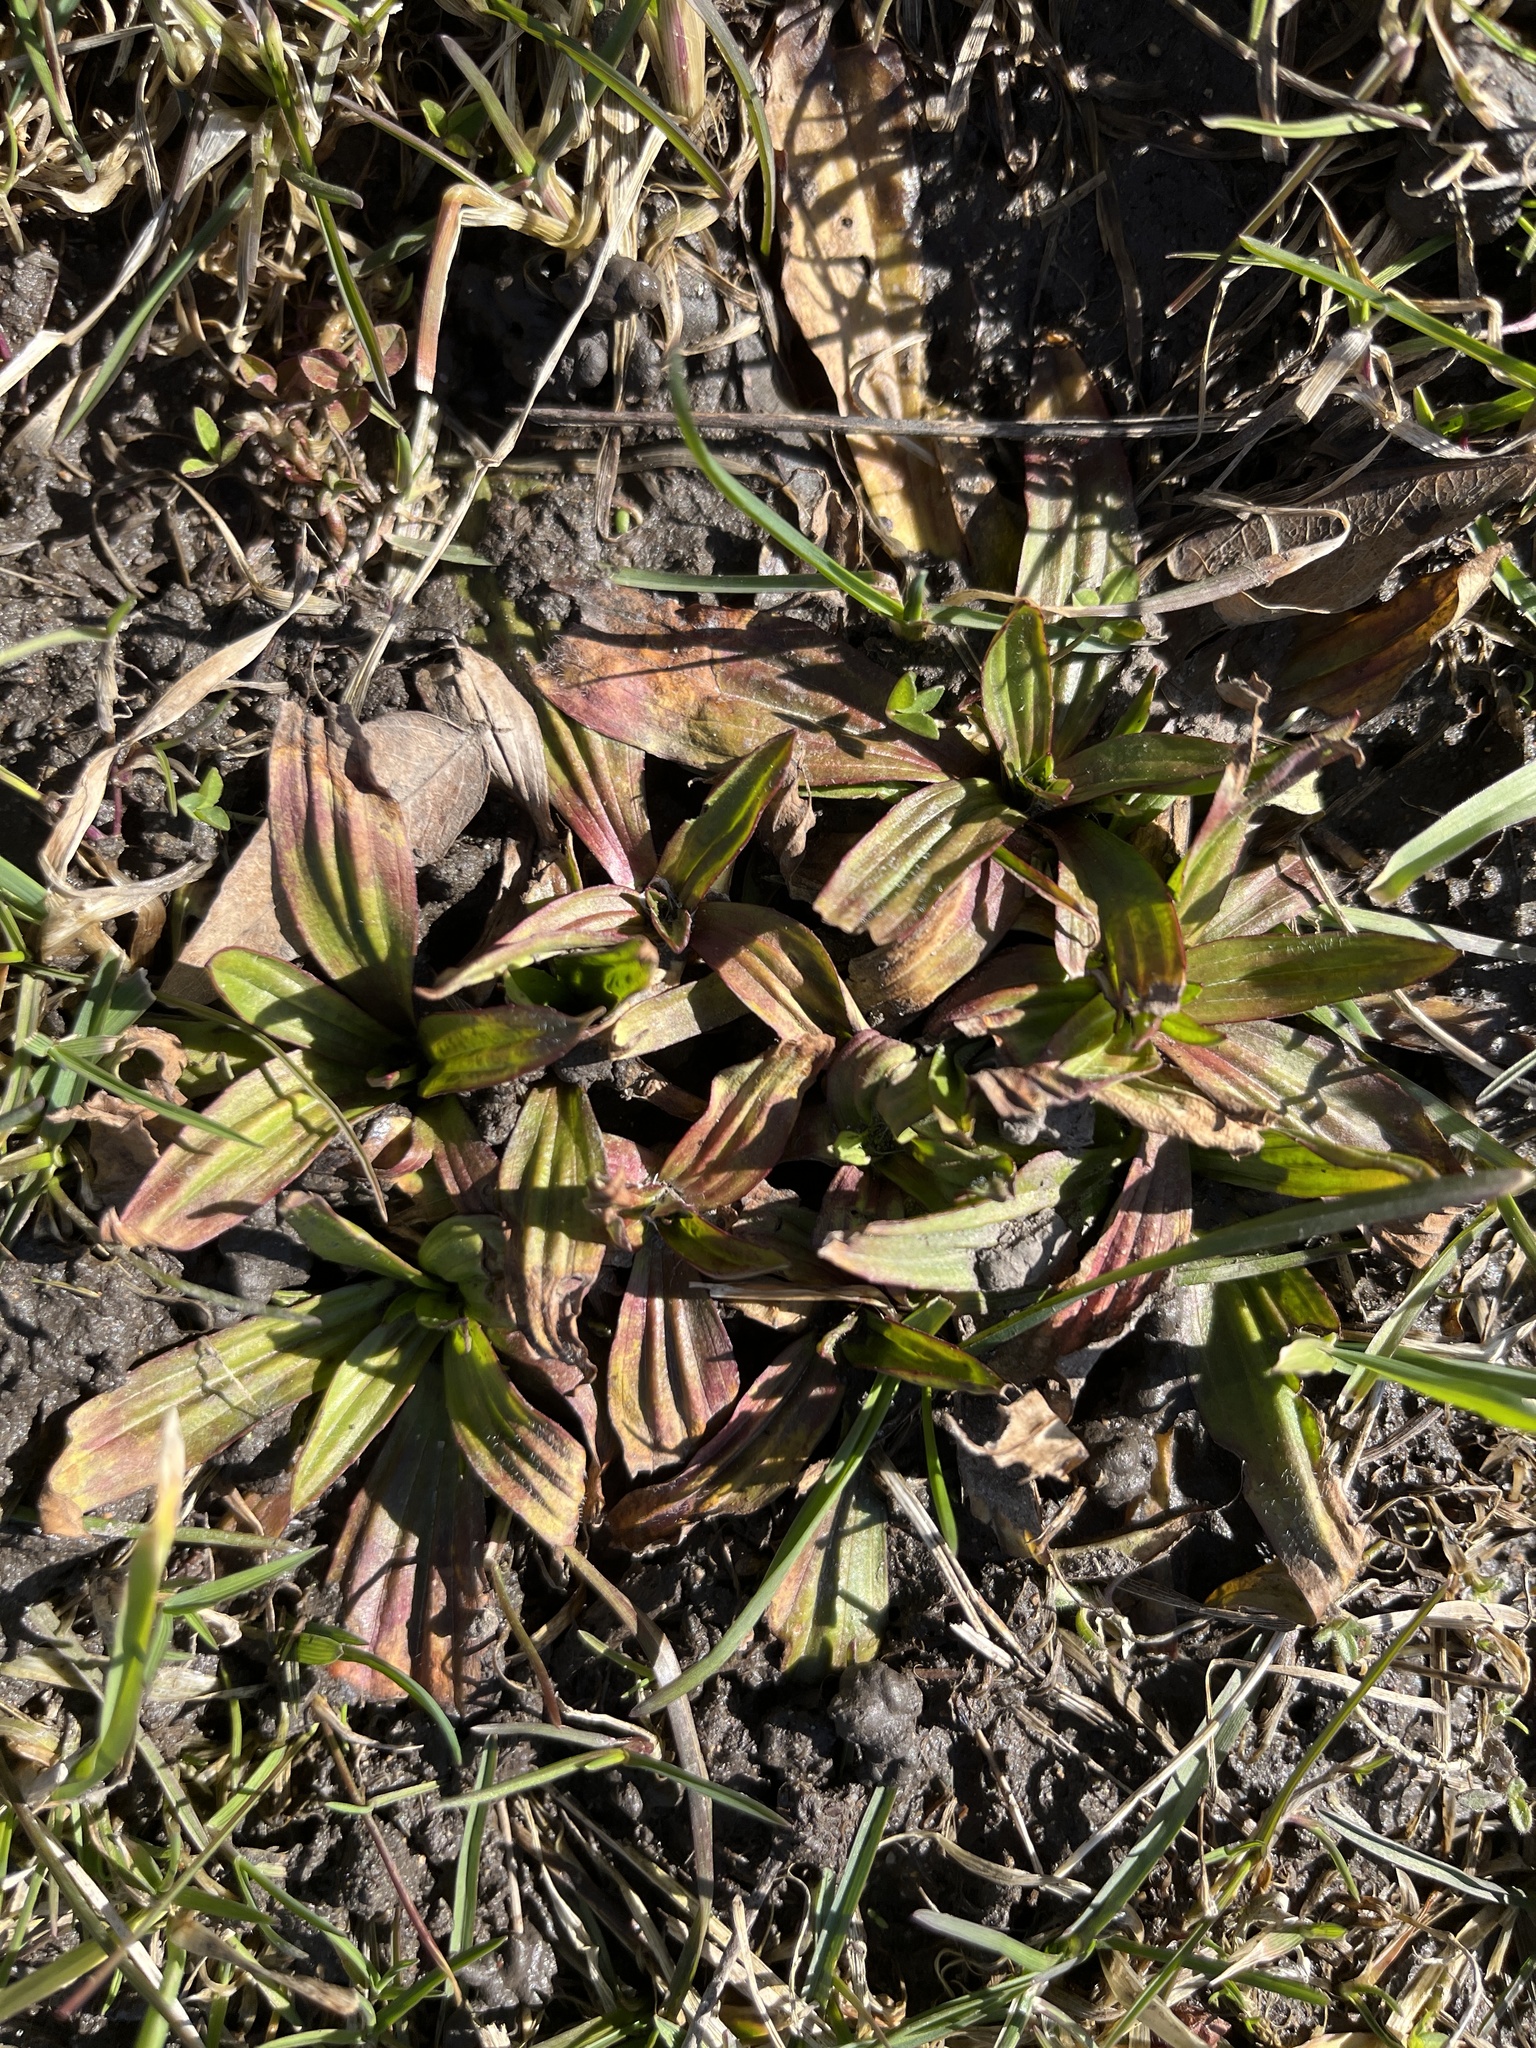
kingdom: Plantae
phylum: Tracheophyta
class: Magnoliopsida
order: Lamiales
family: Plantaginaceae
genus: Plantago
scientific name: Plantago lanceolata
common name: Ribwort plantain
